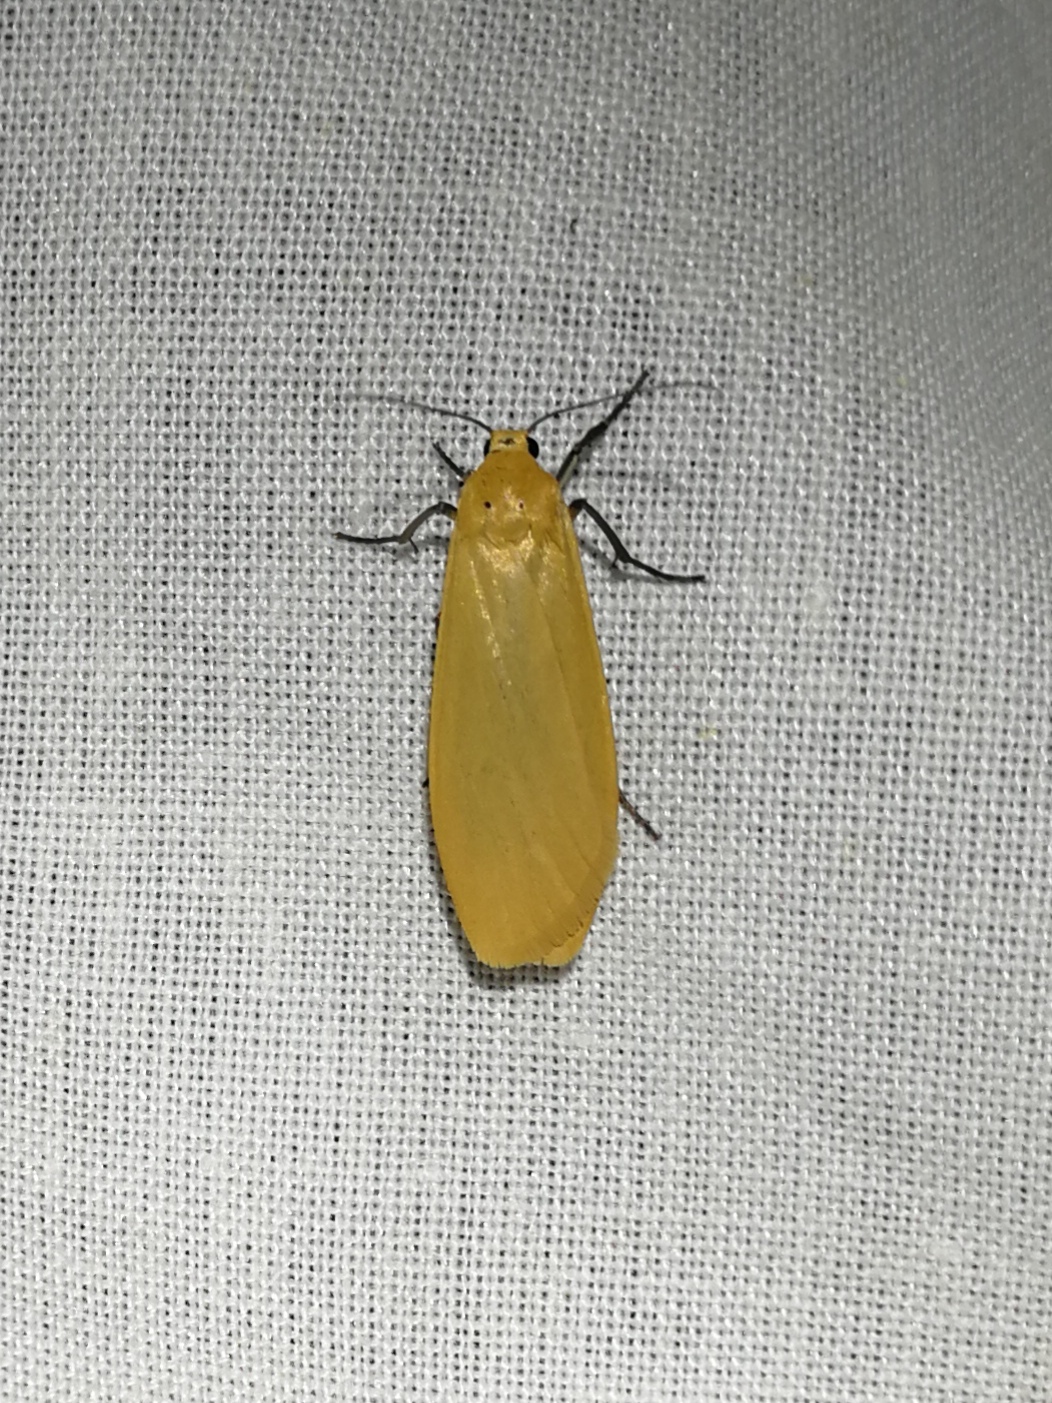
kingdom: Animalia
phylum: Arthropoda
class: Insecta
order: Lepidoptera
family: Erebidae
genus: Wittia
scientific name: Wittia sororcula
